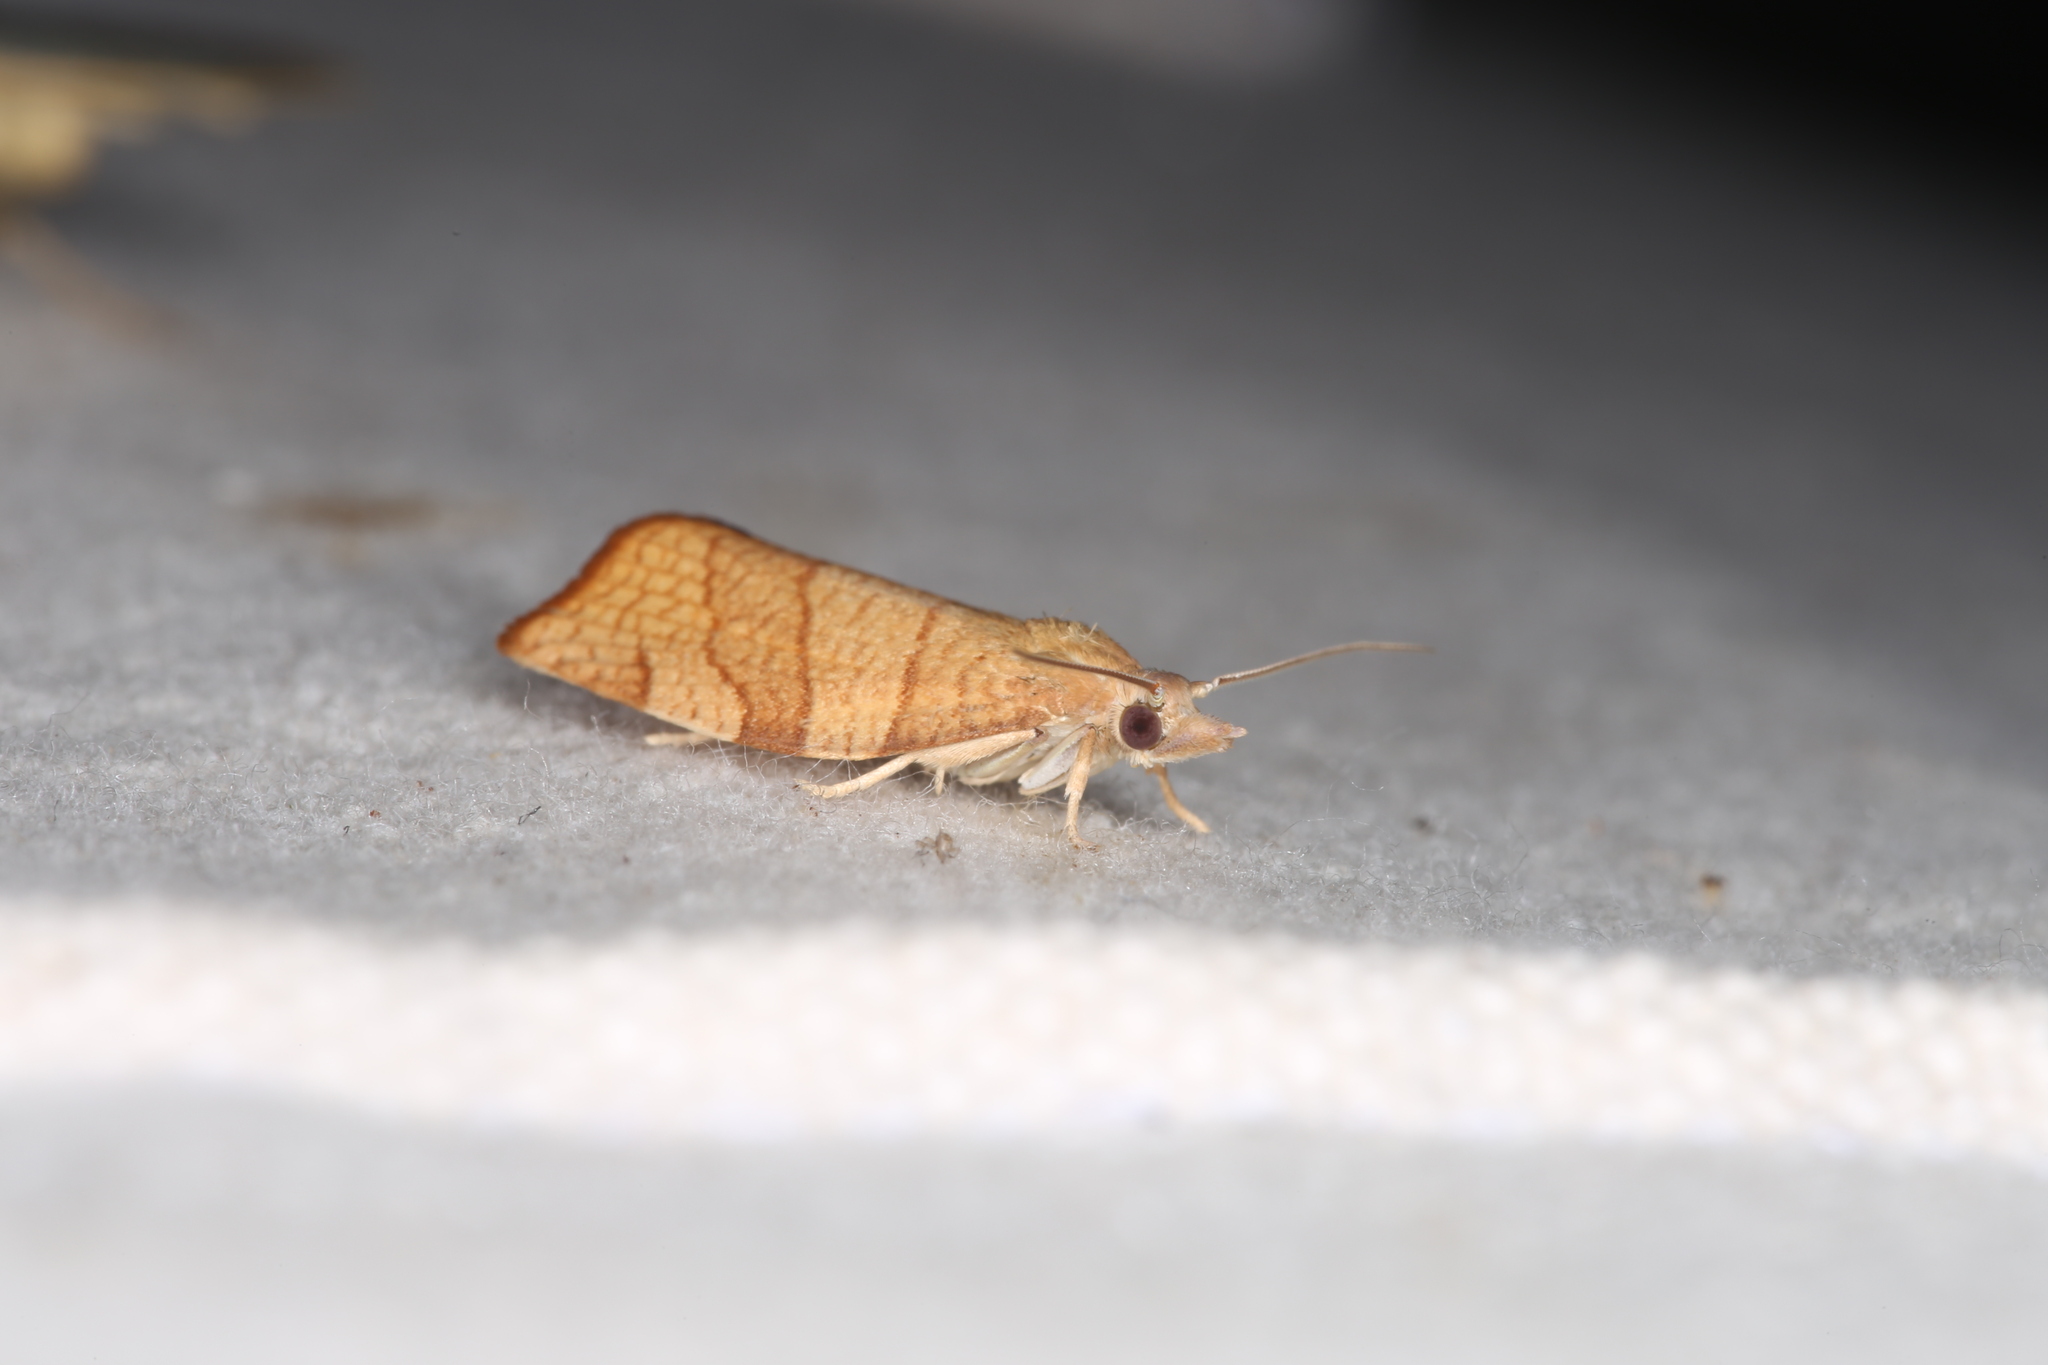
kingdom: Animalia
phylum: Arthropoda
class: Insecta
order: Lepidoptera
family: Tortricidae
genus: Pandemis
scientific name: Pandemis corylana
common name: Chequered fruit-tree tortrix
